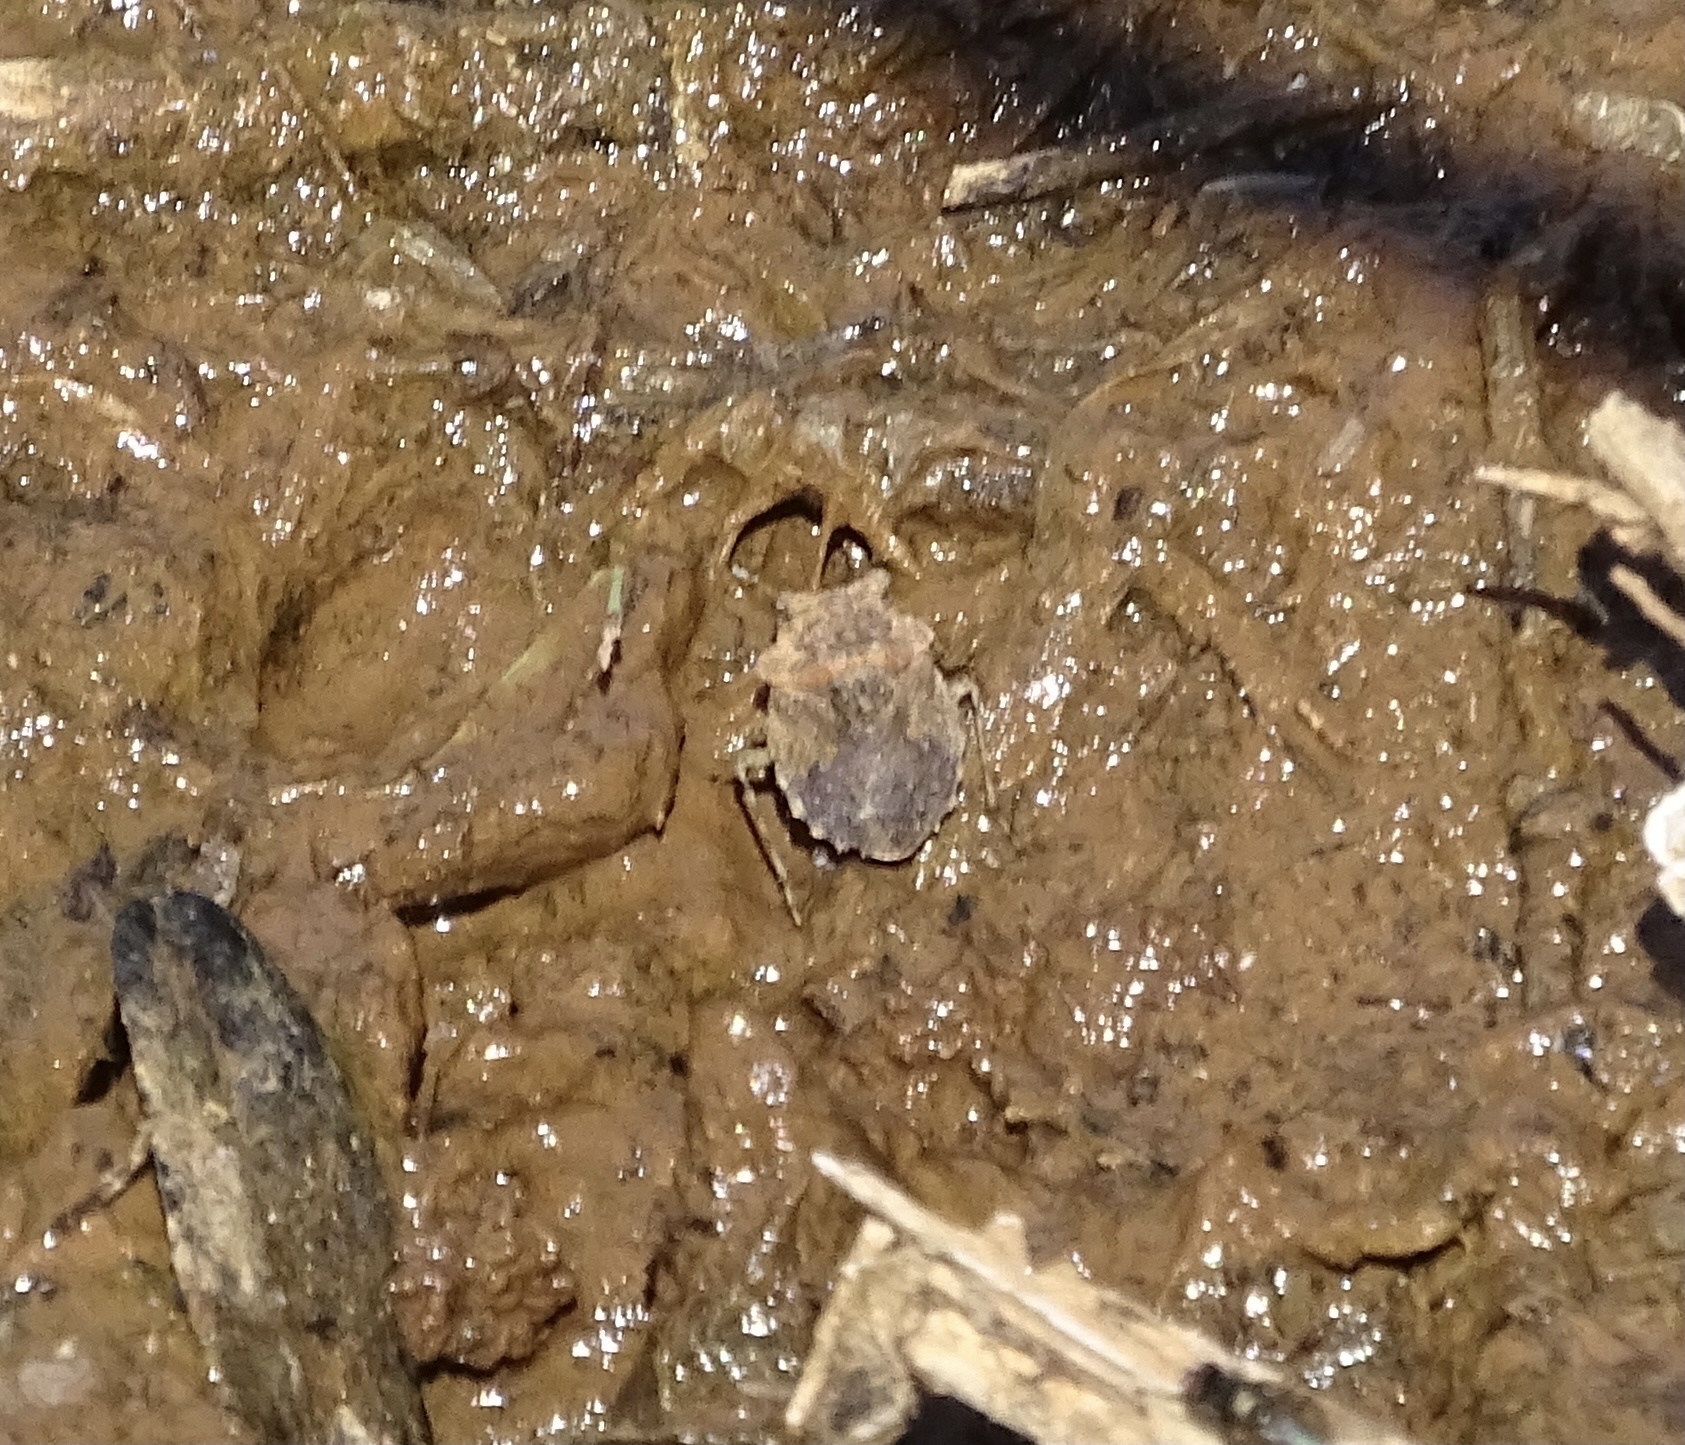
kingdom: Animalia
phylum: Arthropoda
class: Insecta
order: Hemiptera
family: Gelastocoridae
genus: Gelastocoris
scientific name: Gelastocoris oculatus
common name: Toad bug
